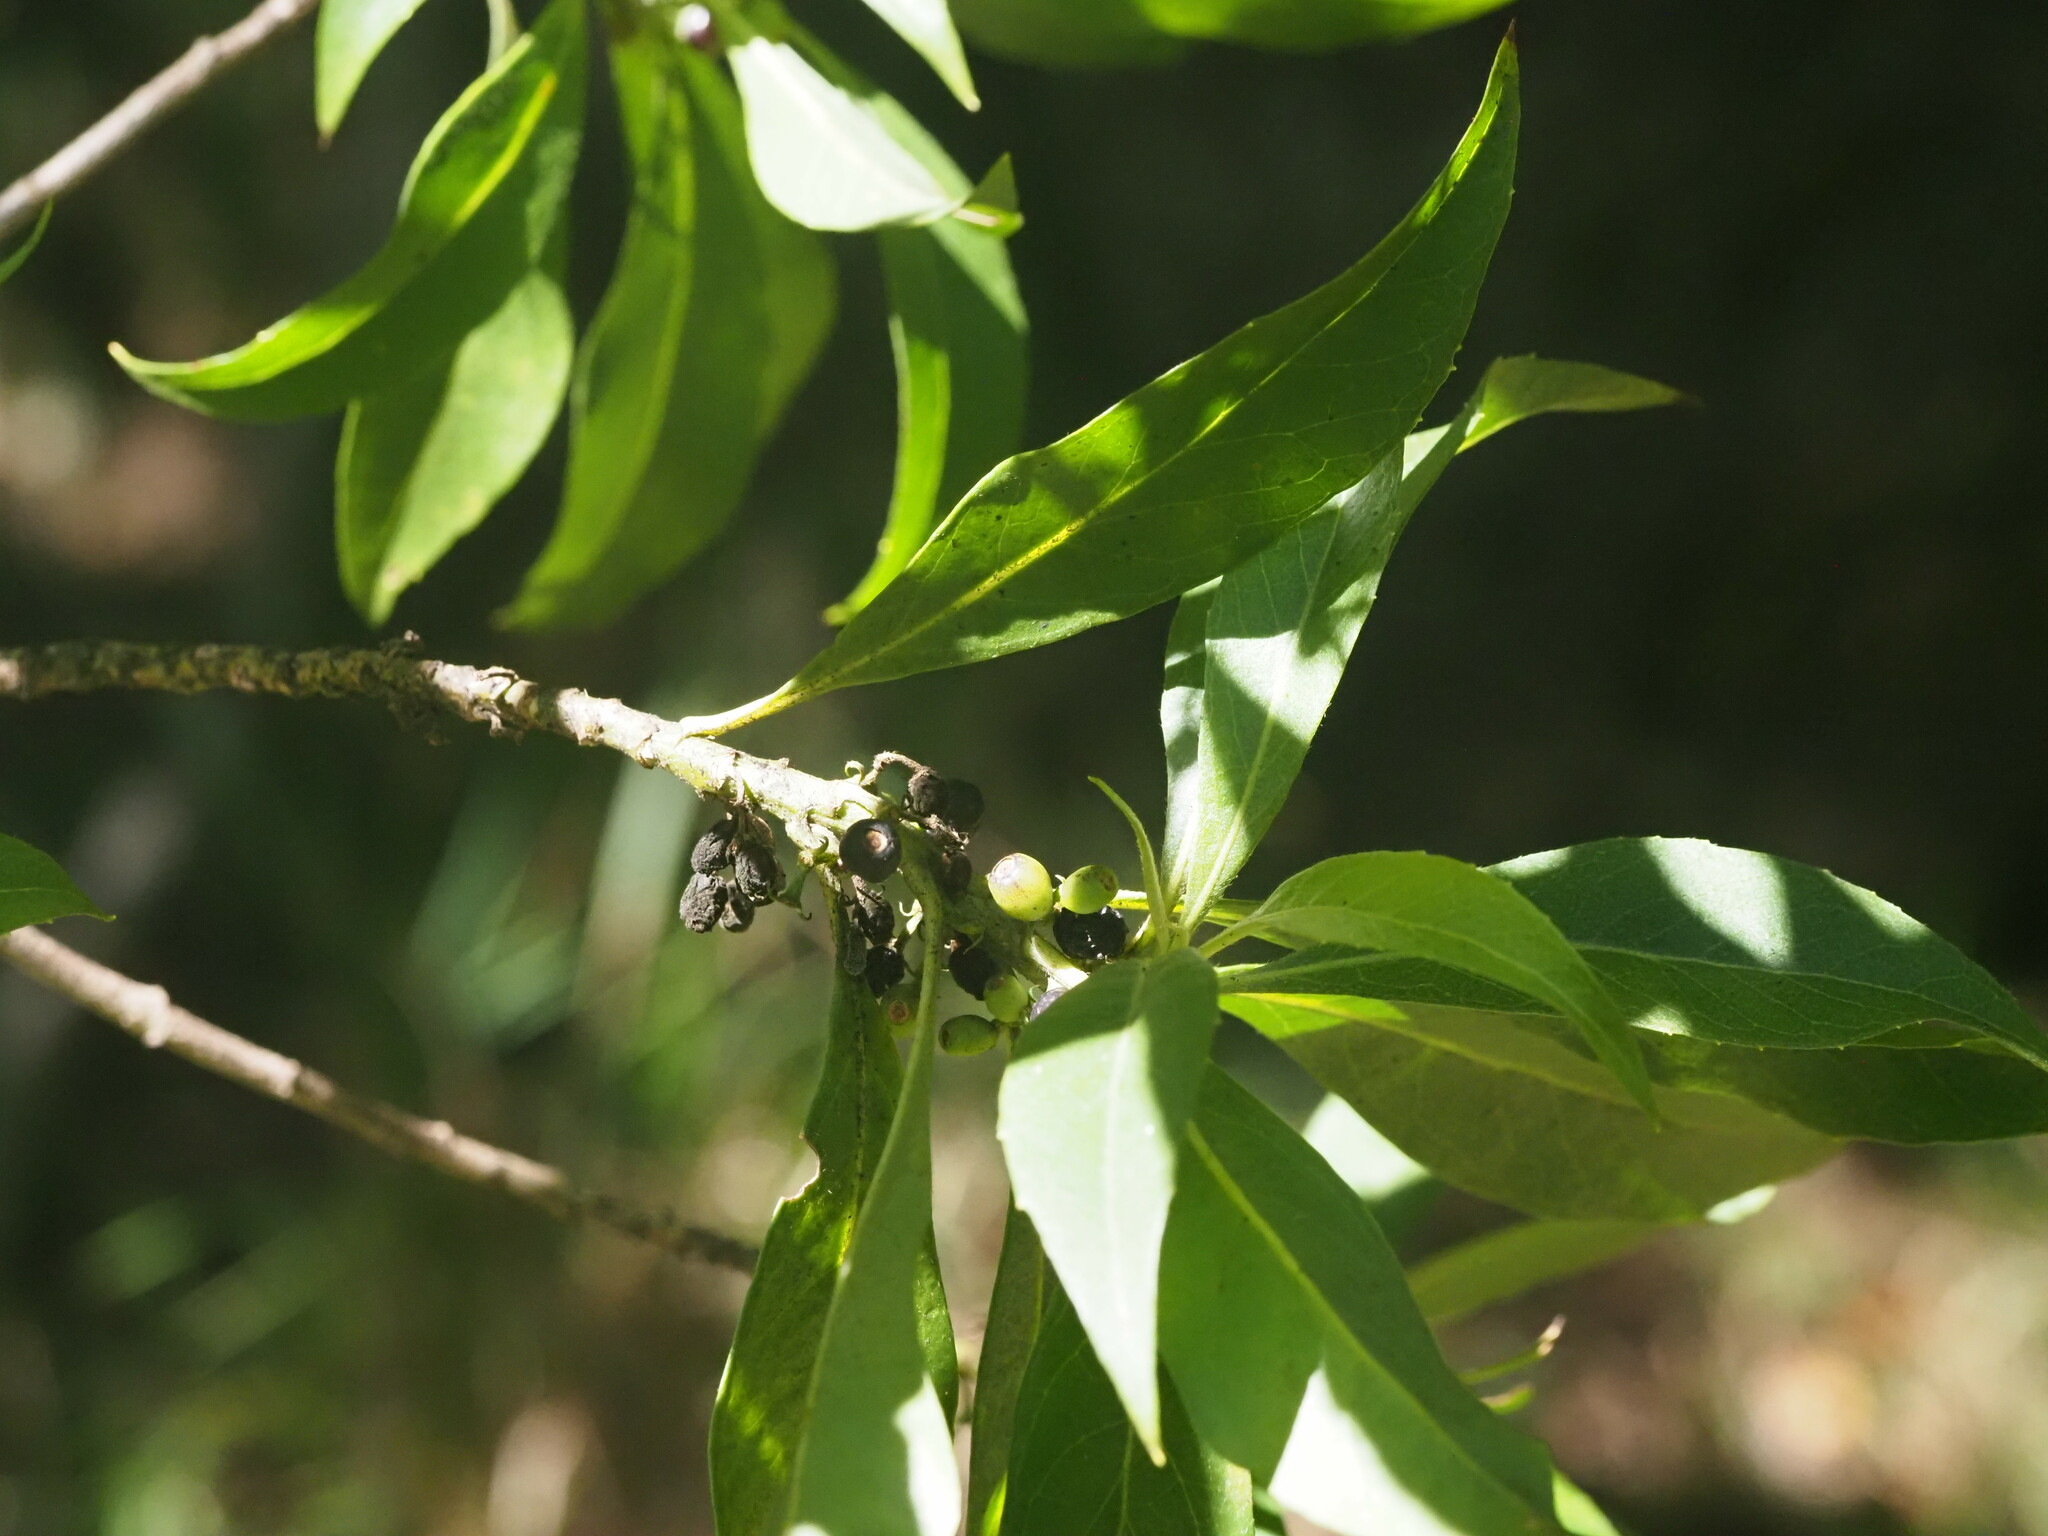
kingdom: Plantae
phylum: Tracheophyta
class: Magnoliopsida
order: Asterales
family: Goodeniaceae
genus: Scaevola
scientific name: Scaevola procera
